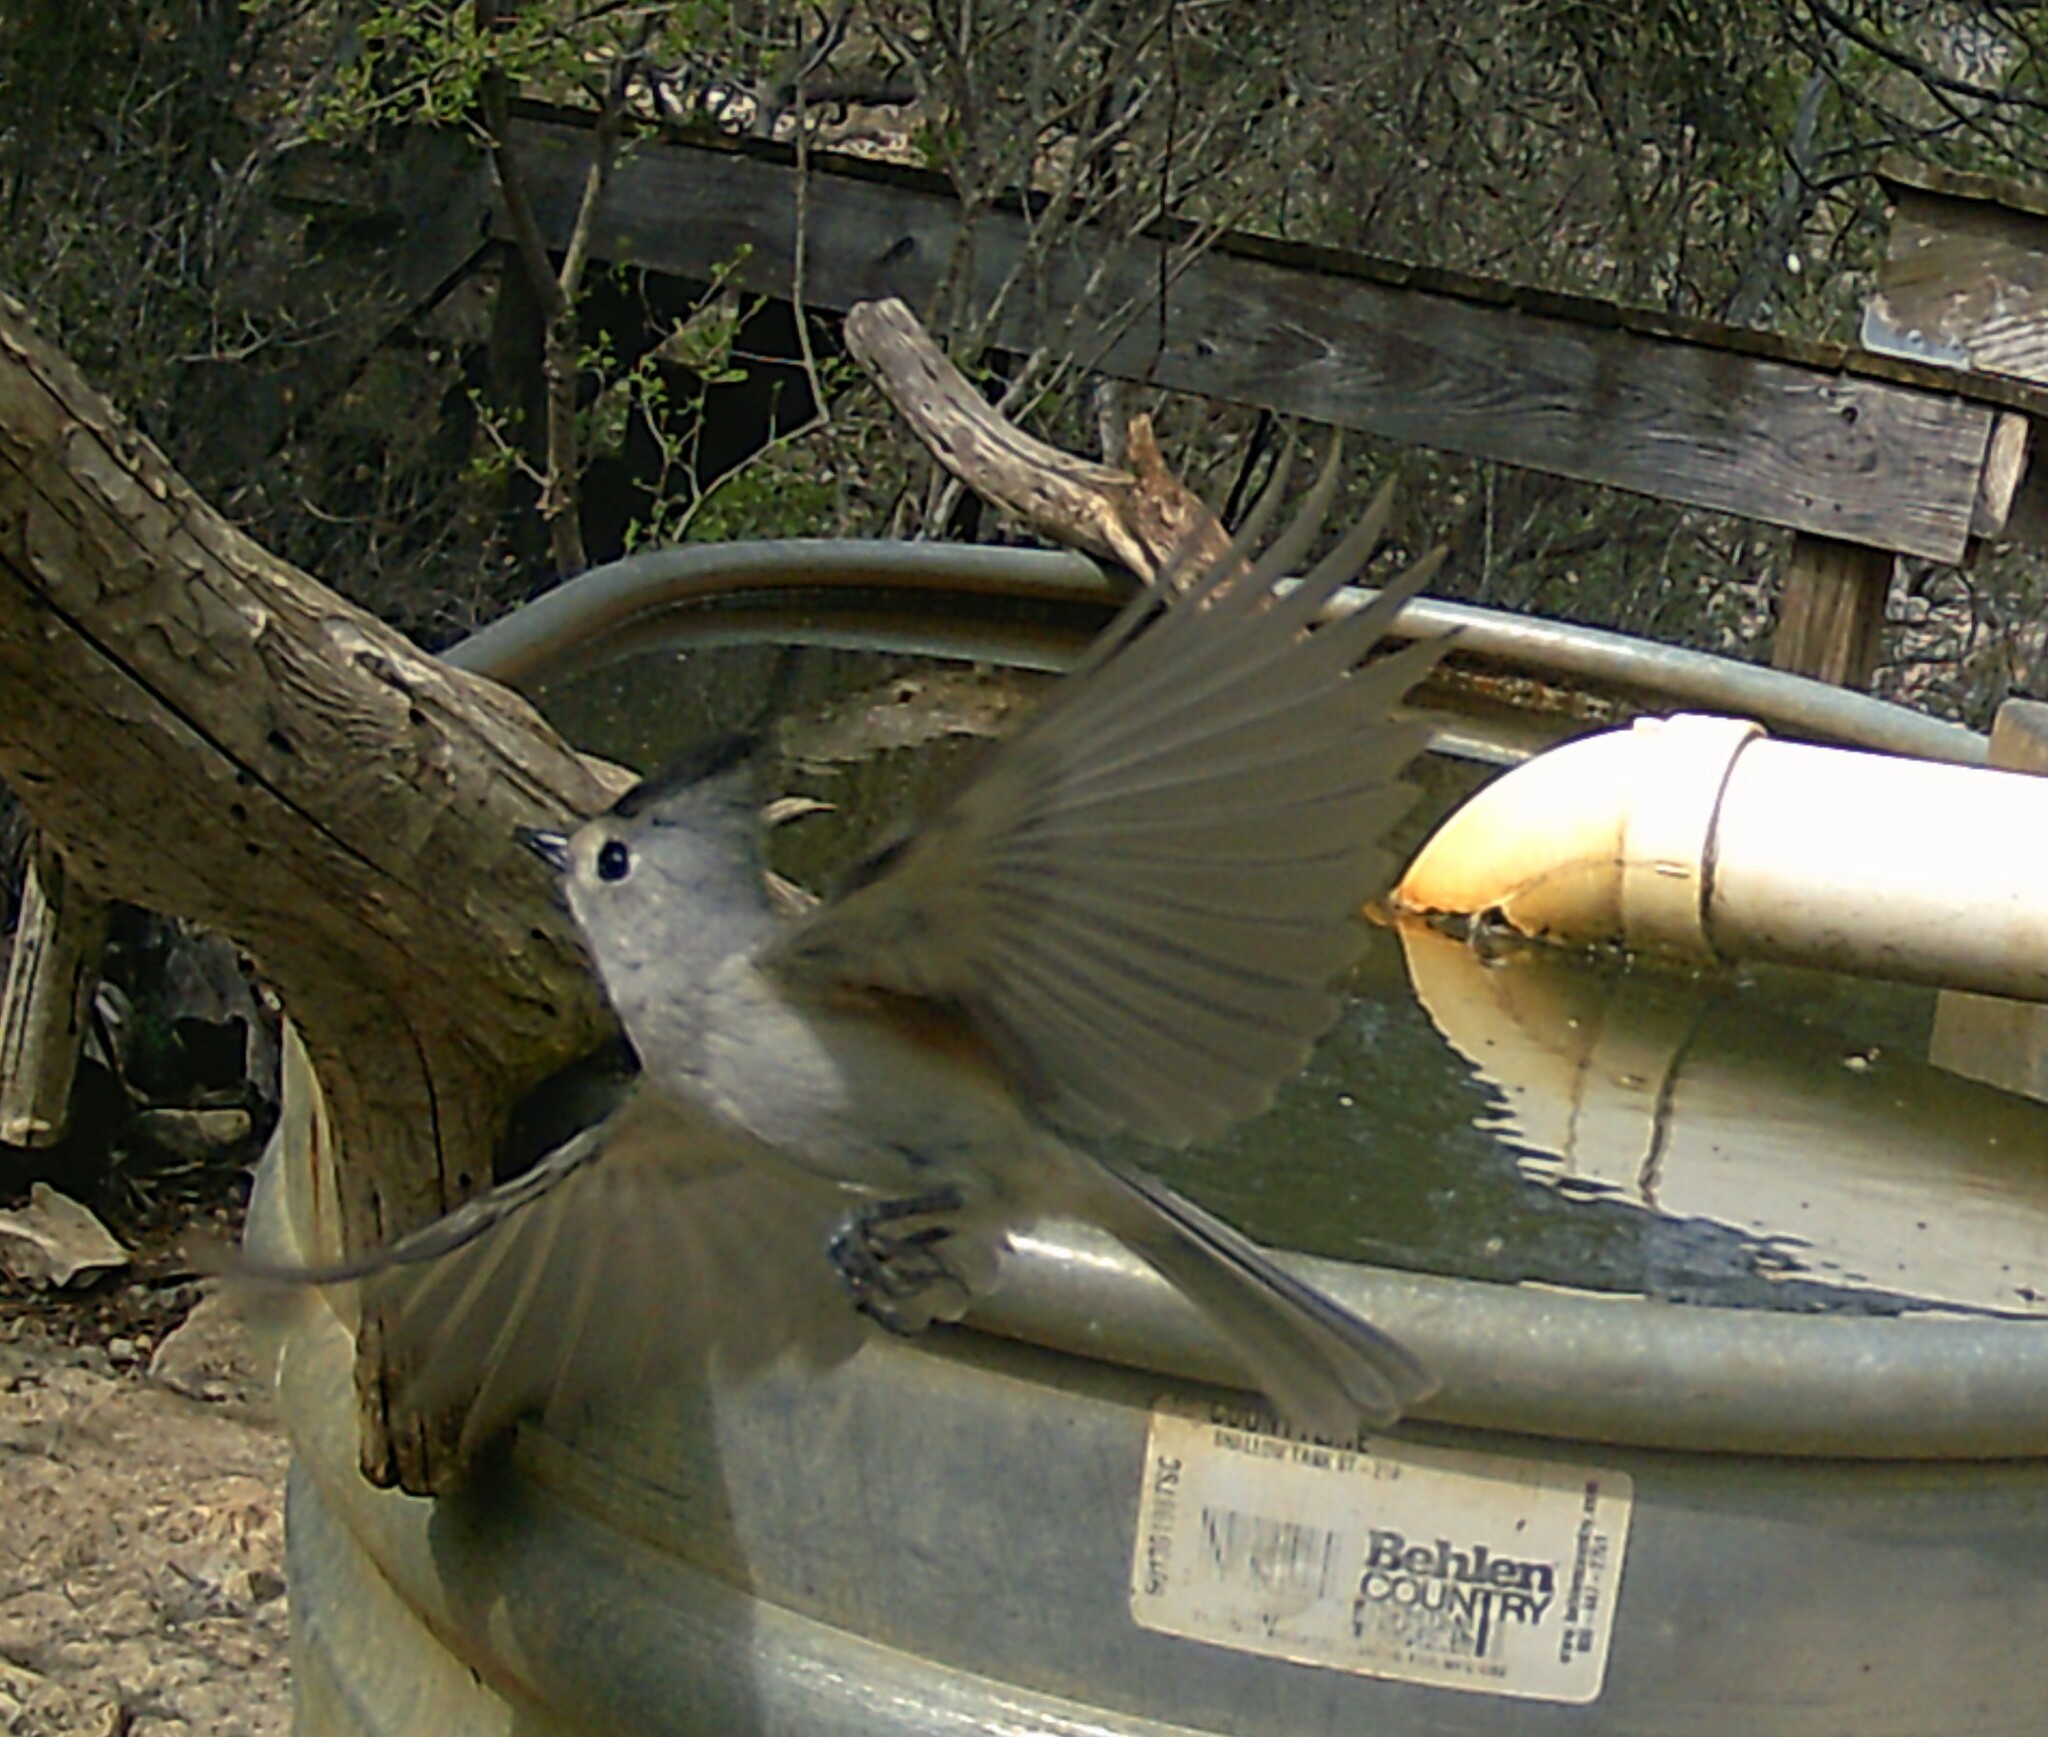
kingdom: Animalia
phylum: Chordata
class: Aves
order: Passeriformes
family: Paridae
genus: Baeolophus
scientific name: Baeolophus atricristatus
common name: Black-crested titmouse
